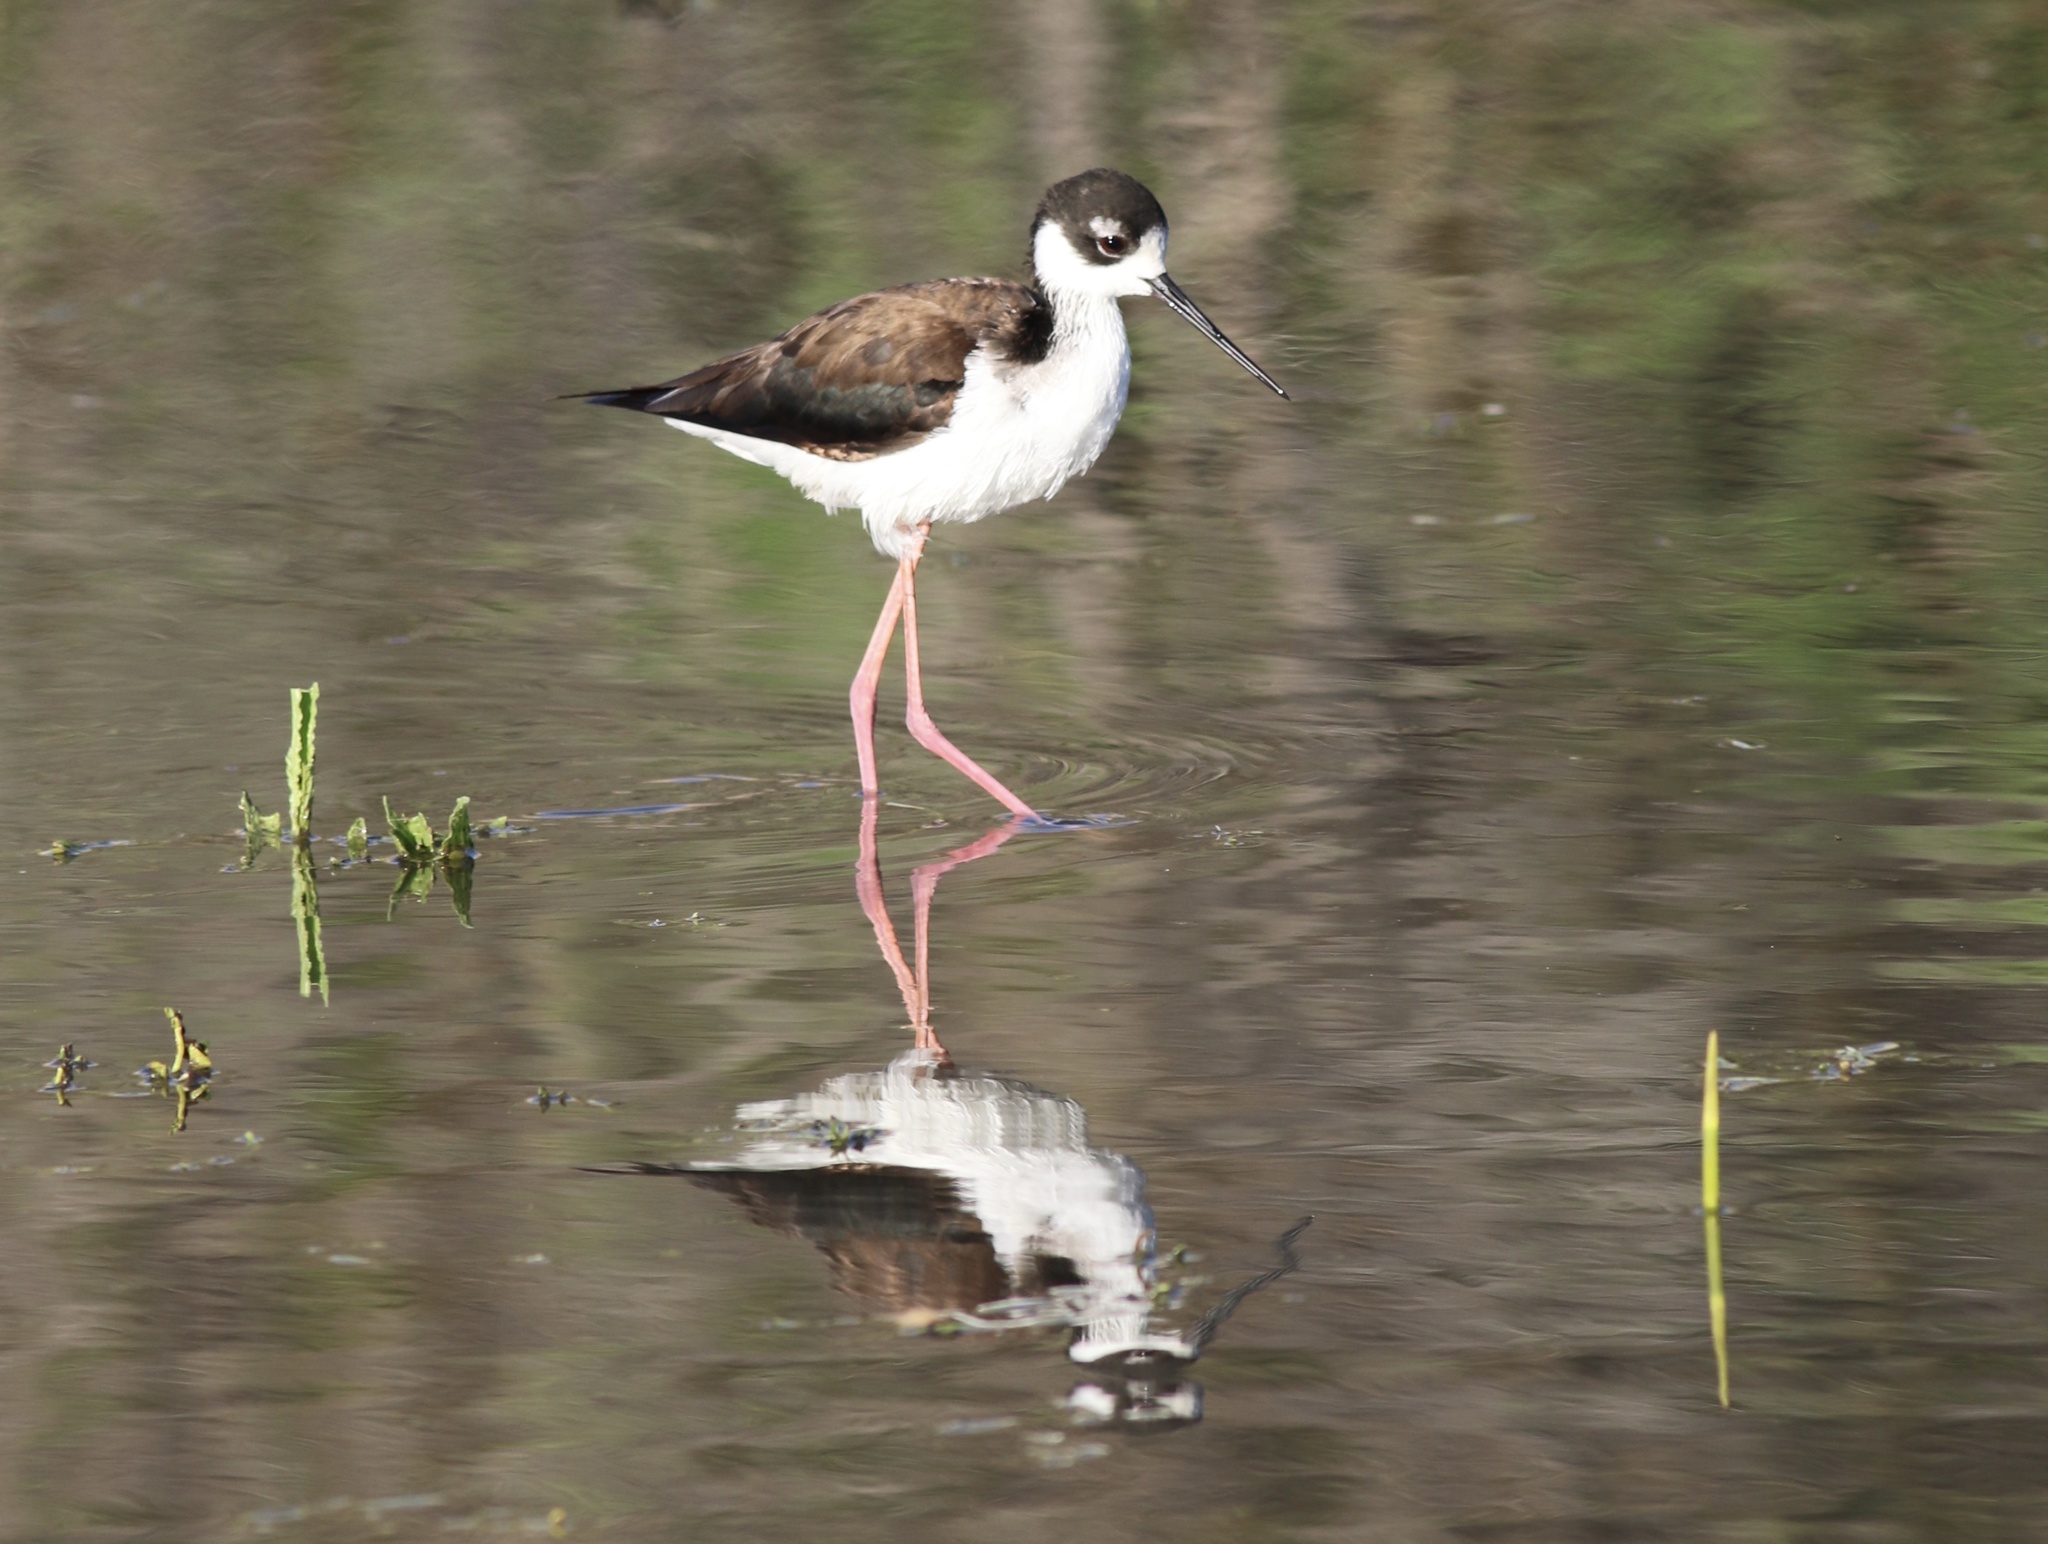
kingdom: Animalia
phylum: Chordata
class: Aves
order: Charadriiformes
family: Recurvirostridae
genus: Himantopus
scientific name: Himantopus mexicanus
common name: Black-necked stilt
